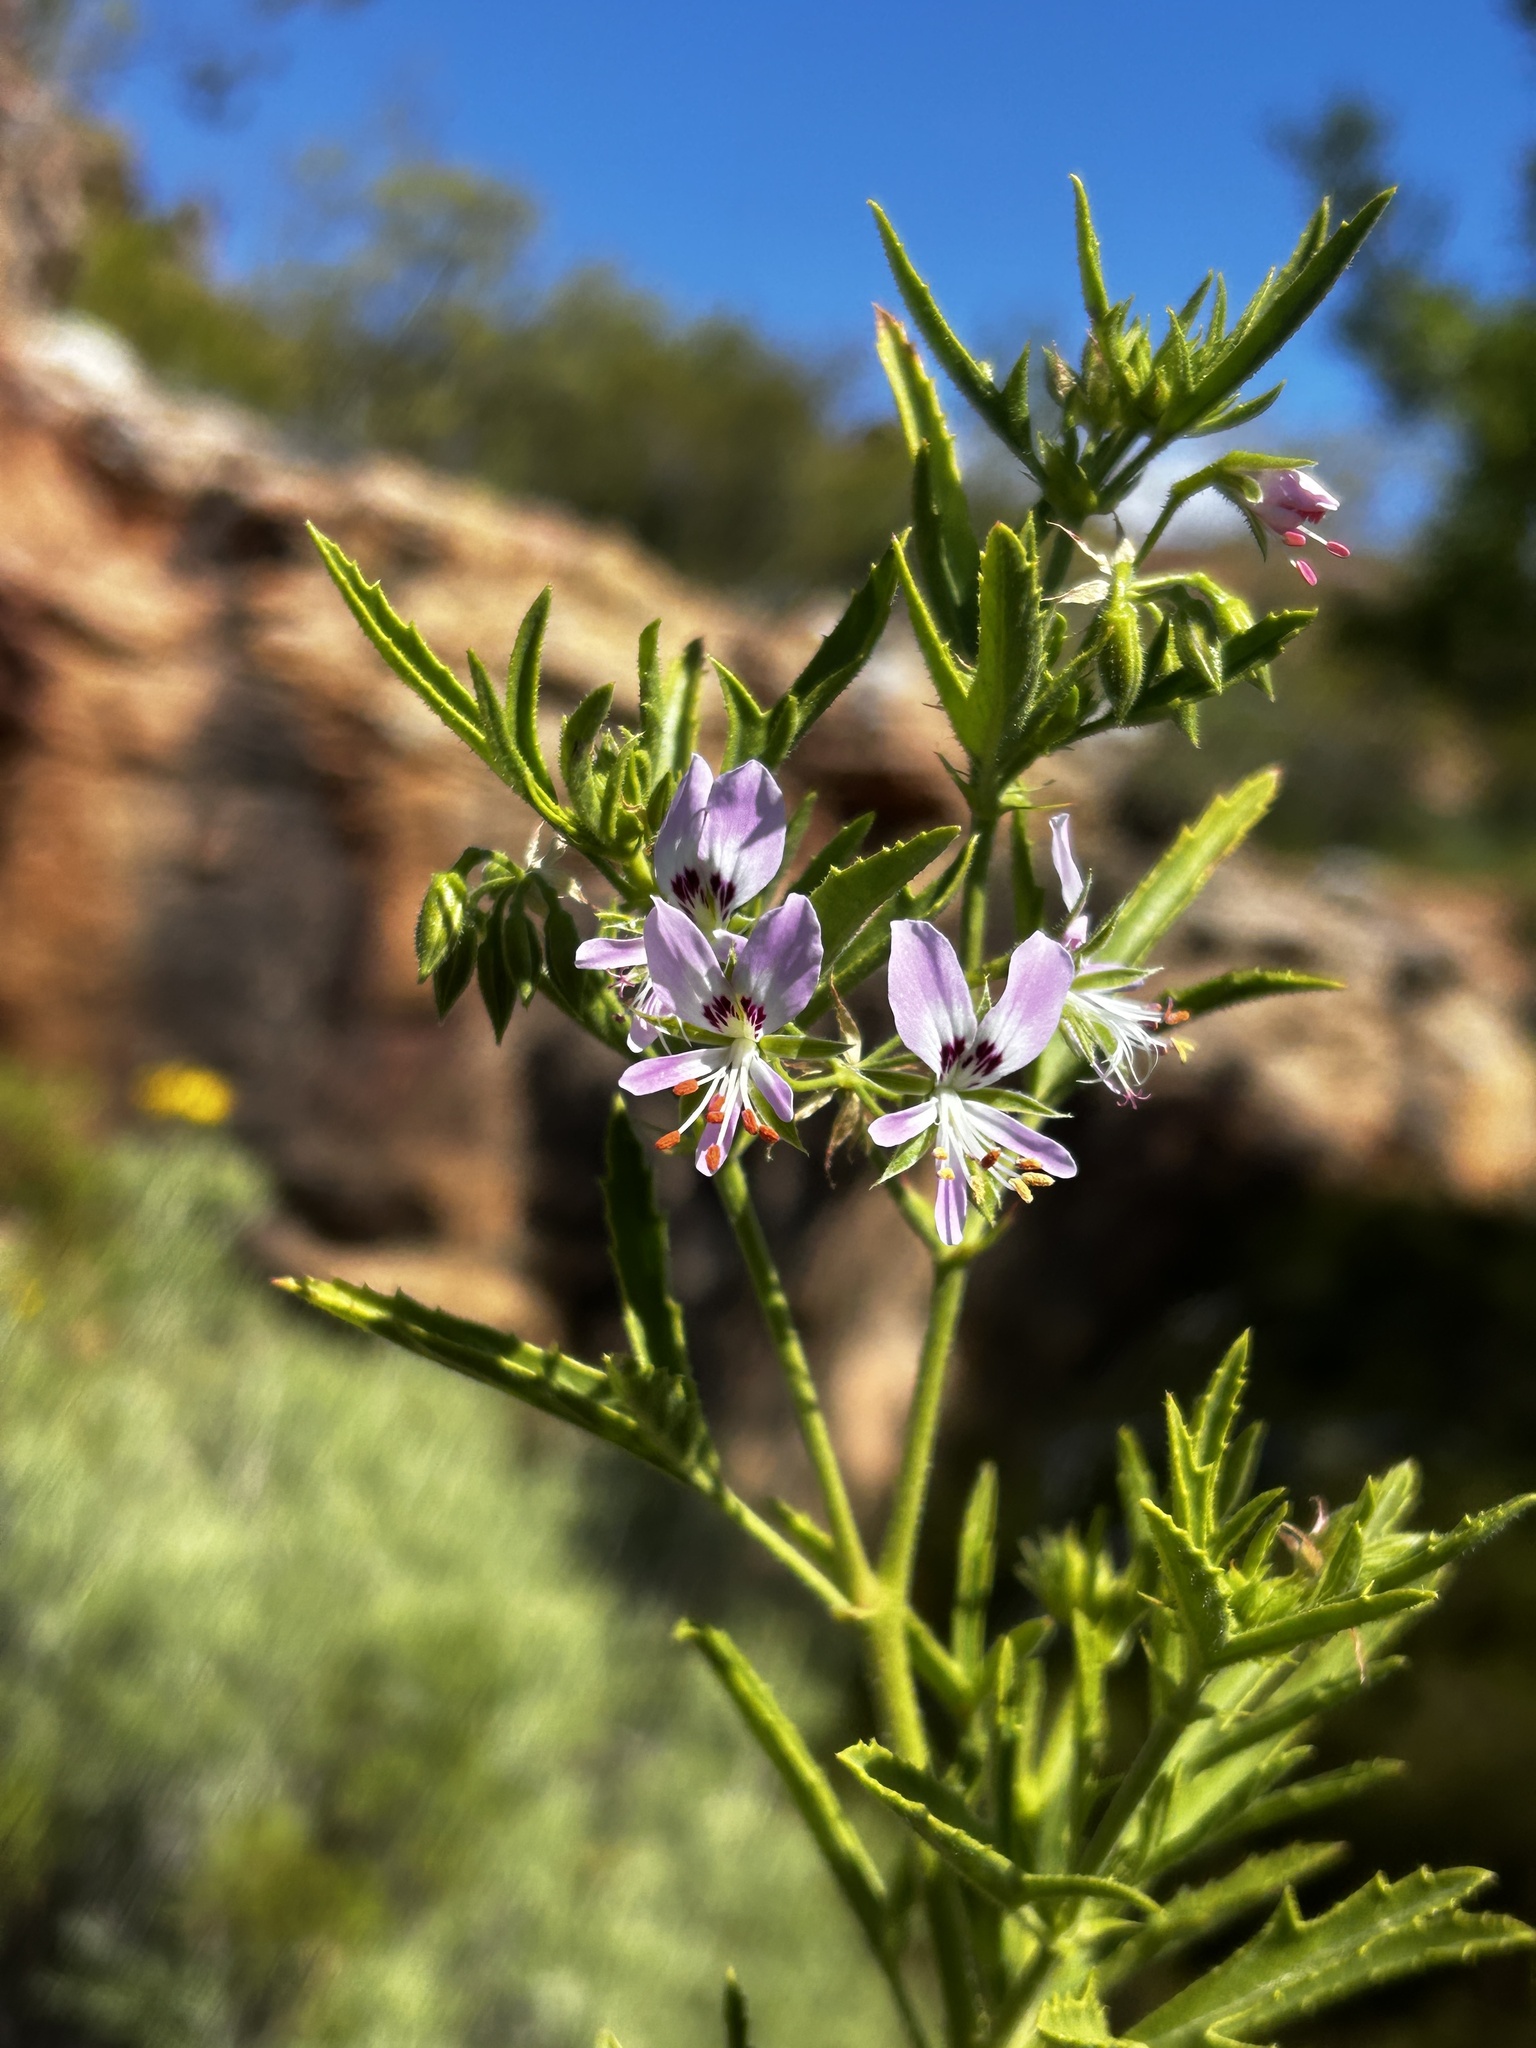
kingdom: Plantae
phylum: Tracheophyta
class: Magnoliopsida
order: Geraniales
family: Geraniaceae
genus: Pelargonium
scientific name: Pelargonium scabrum
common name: Apricot geranium
